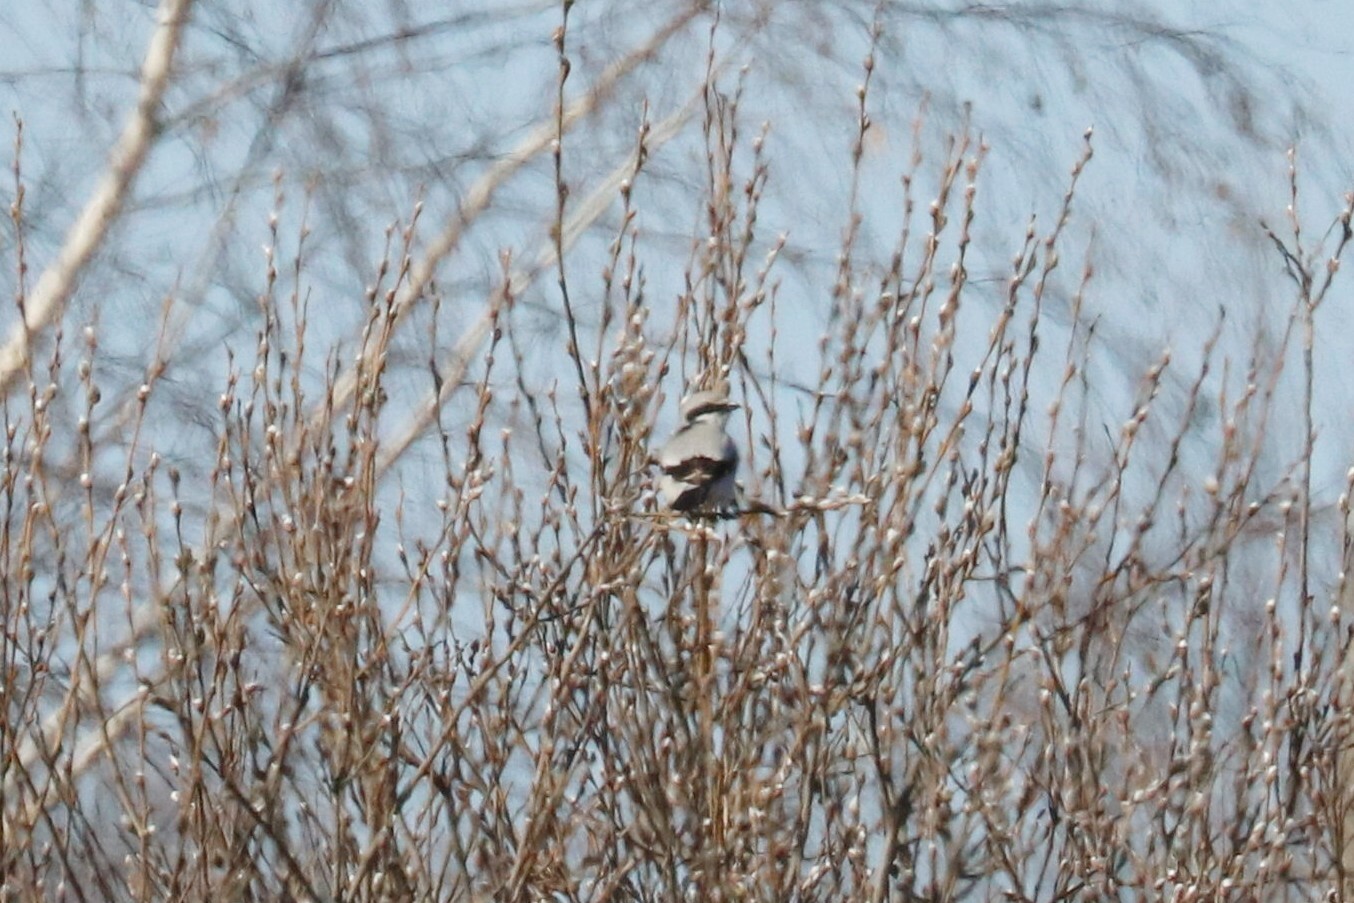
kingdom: Animalia
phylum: Chordata
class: Aves
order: Passeriformes
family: Laniidae
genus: Lanius
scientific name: Lanius excubitor
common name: Great grey shrike
